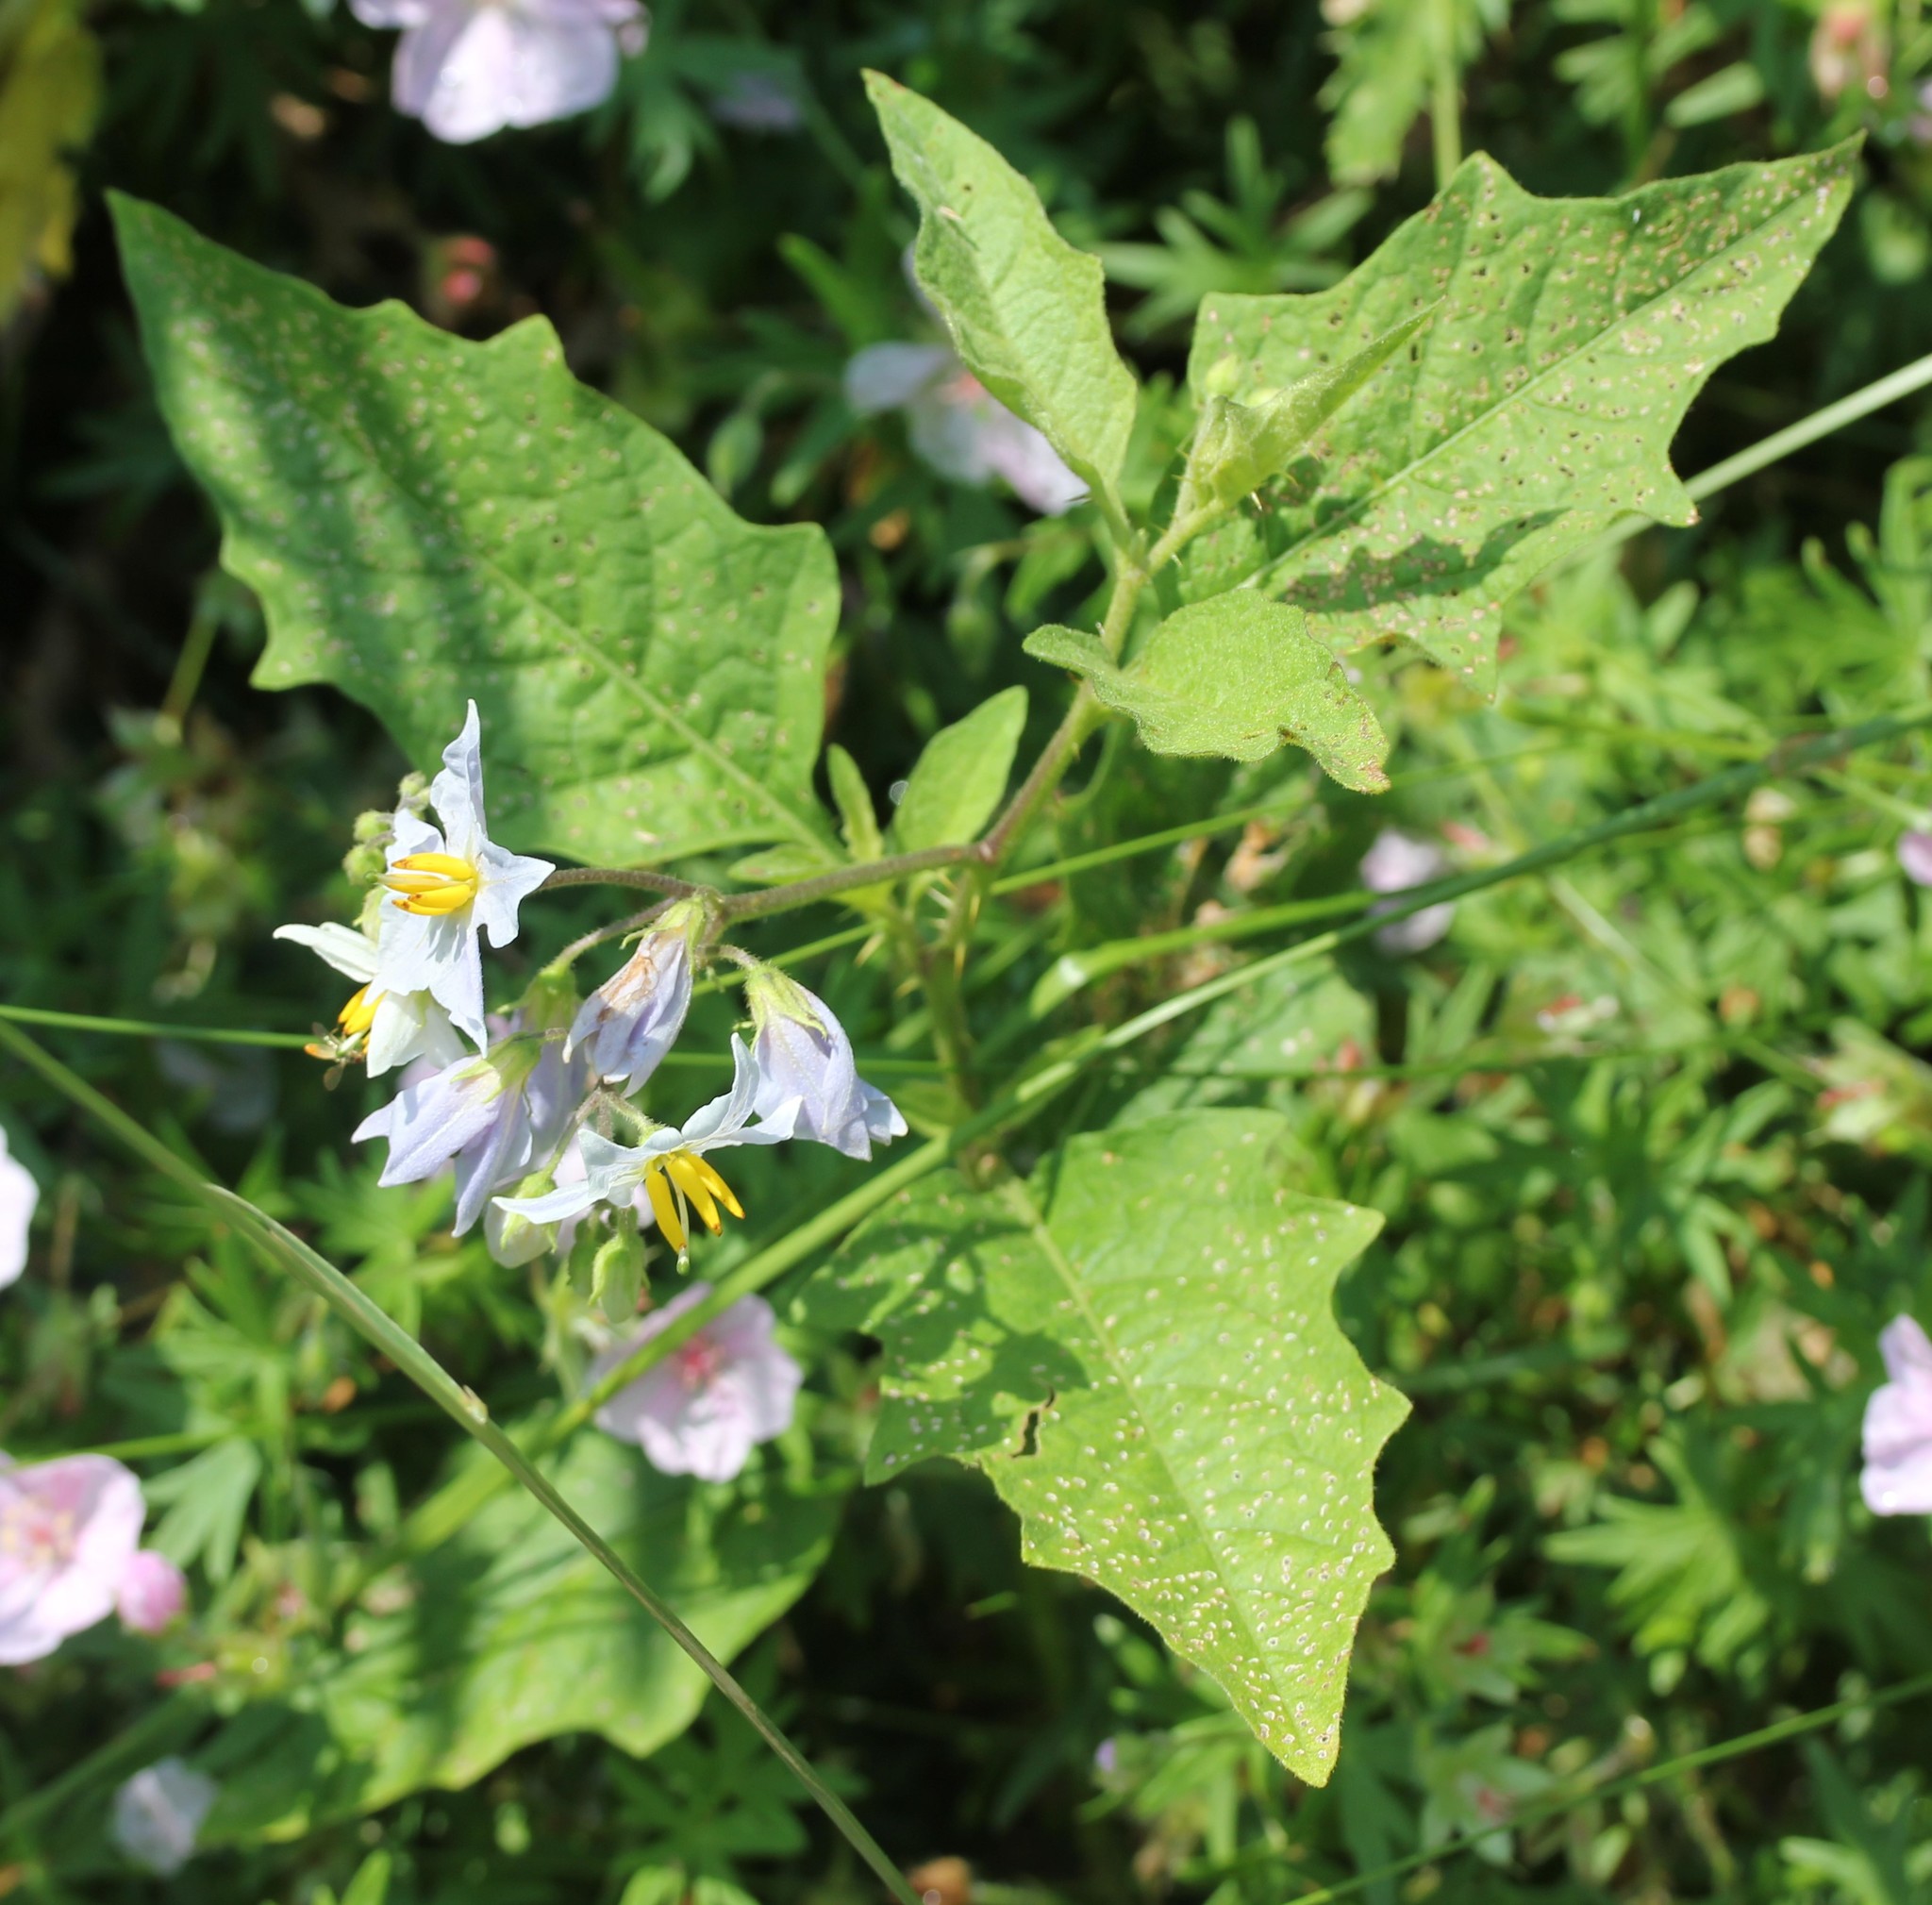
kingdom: Plantae
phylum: Tracheophyta
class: Magnoliopsida
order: Solanales
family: Solanaceae
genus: Solanum
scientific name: Solanum carolinense
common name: Horse-nettle
